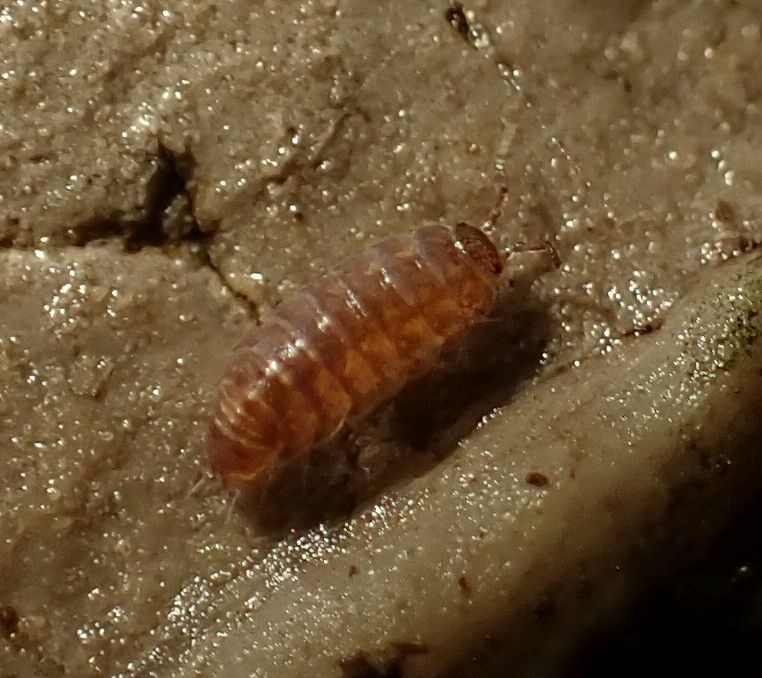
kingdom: Animalia
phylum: Arthropoda
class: Malacostraca
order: Isopoda
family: Trichoniscidae
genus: Trichoniscus
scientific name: Trichoniscus
